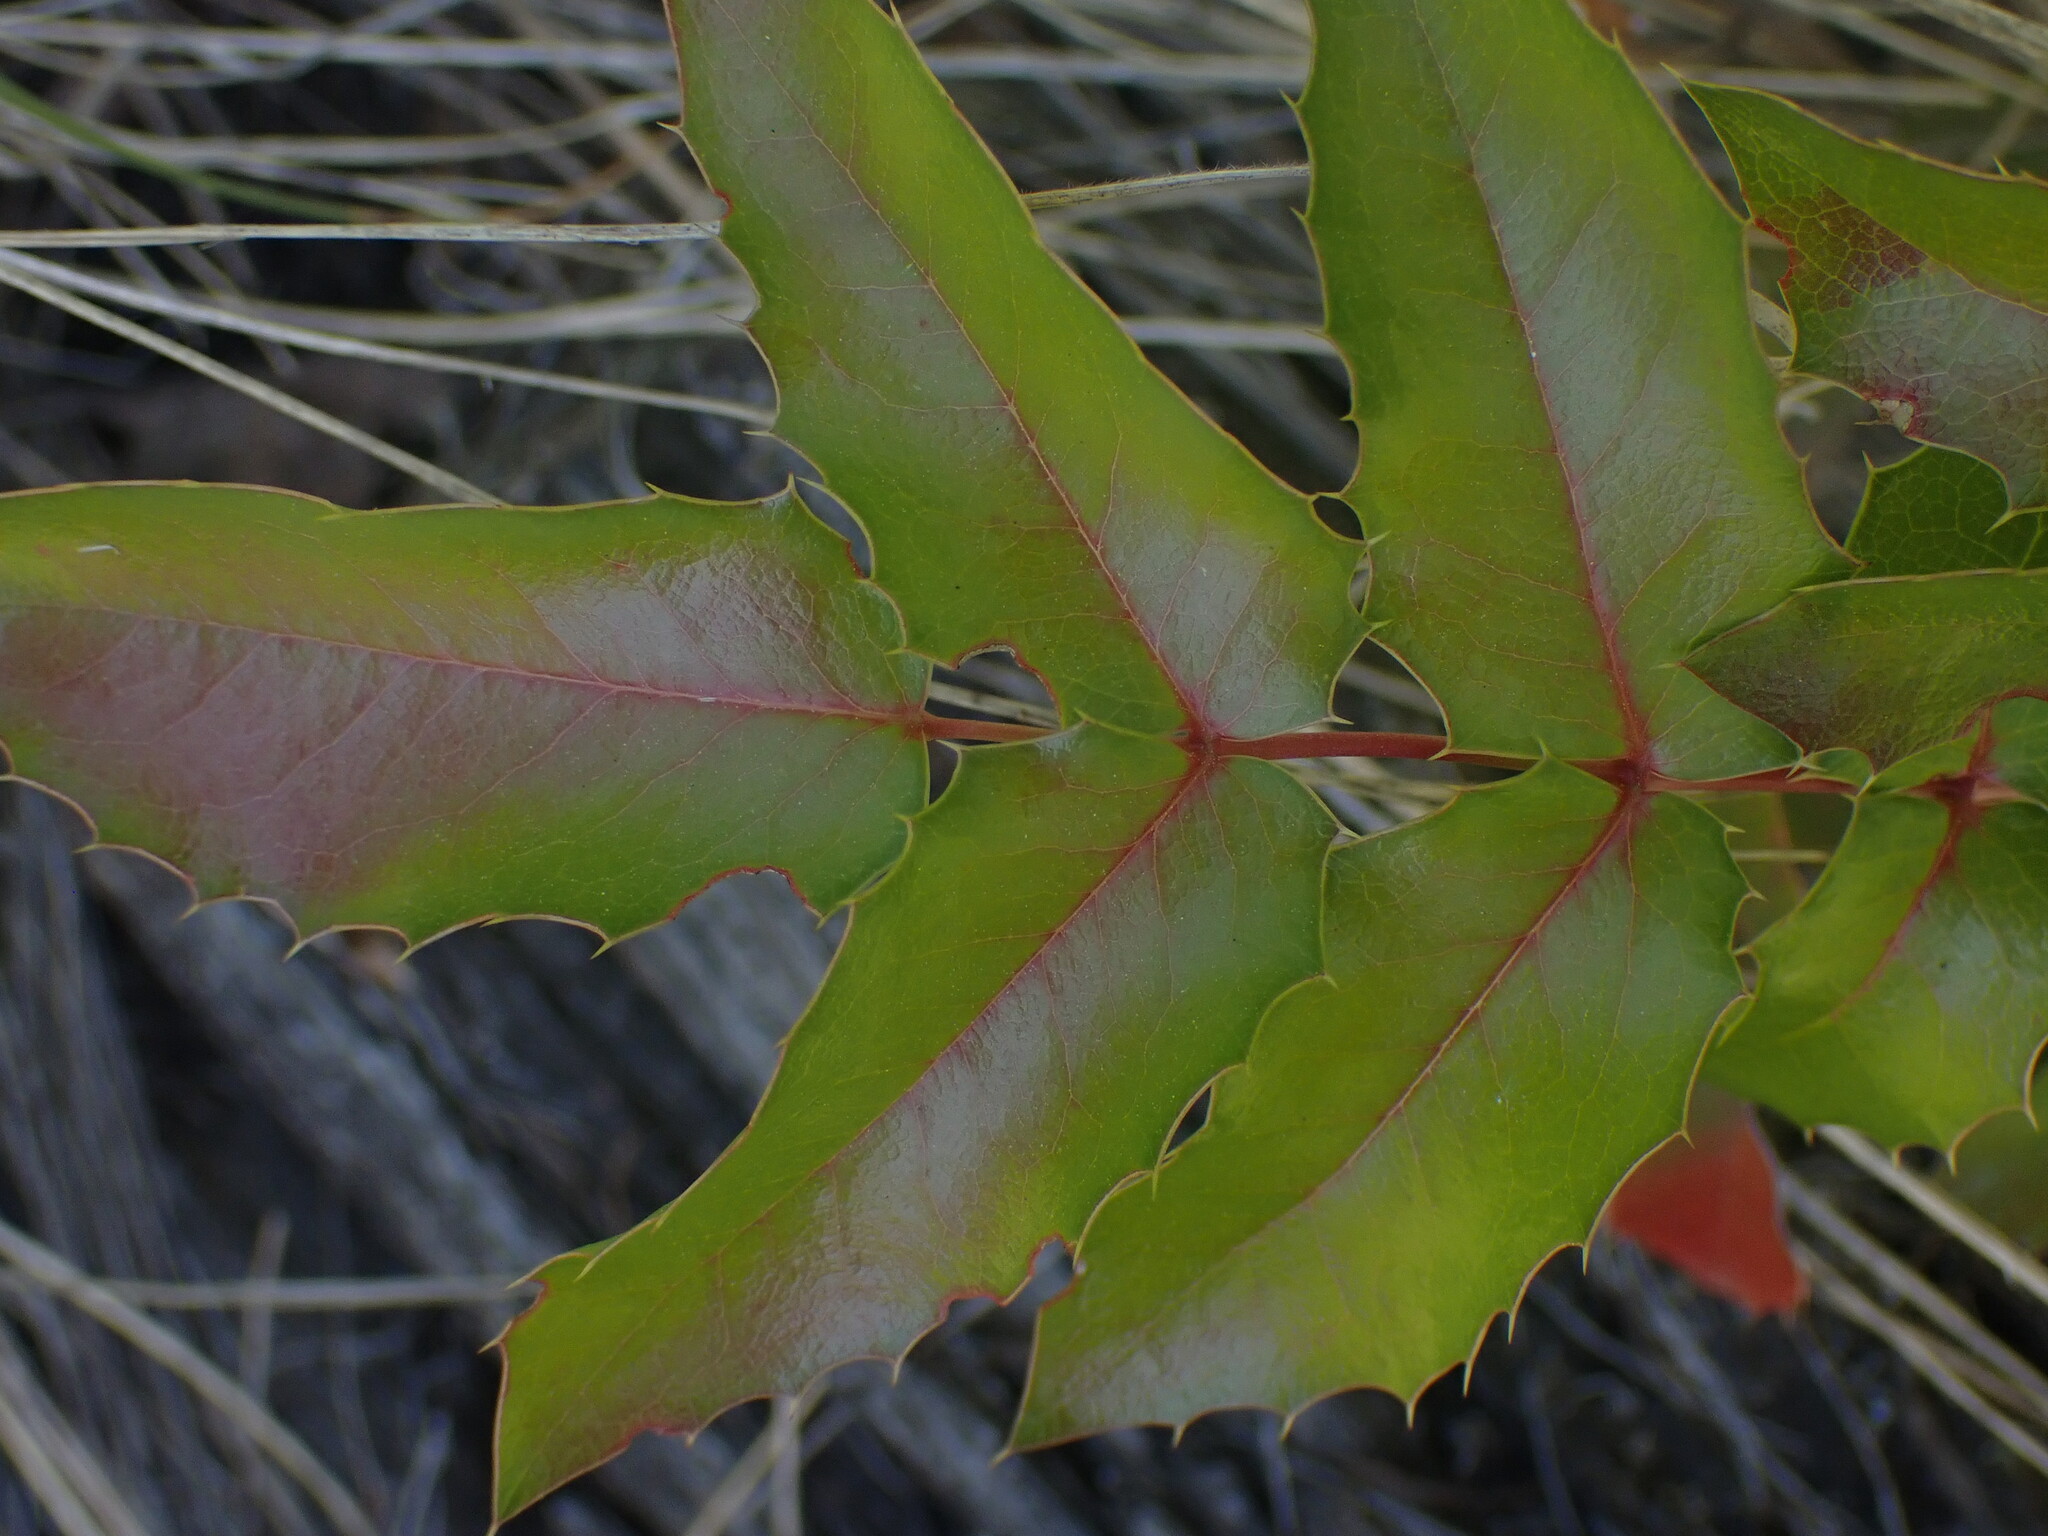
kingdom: Plantae
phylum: Tracheophyta
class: Magnoliopsida
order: Ranunculales
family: Berberidaceae
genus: Mahonia
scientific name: Mahonia aquifolium
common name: Oregon-grape
